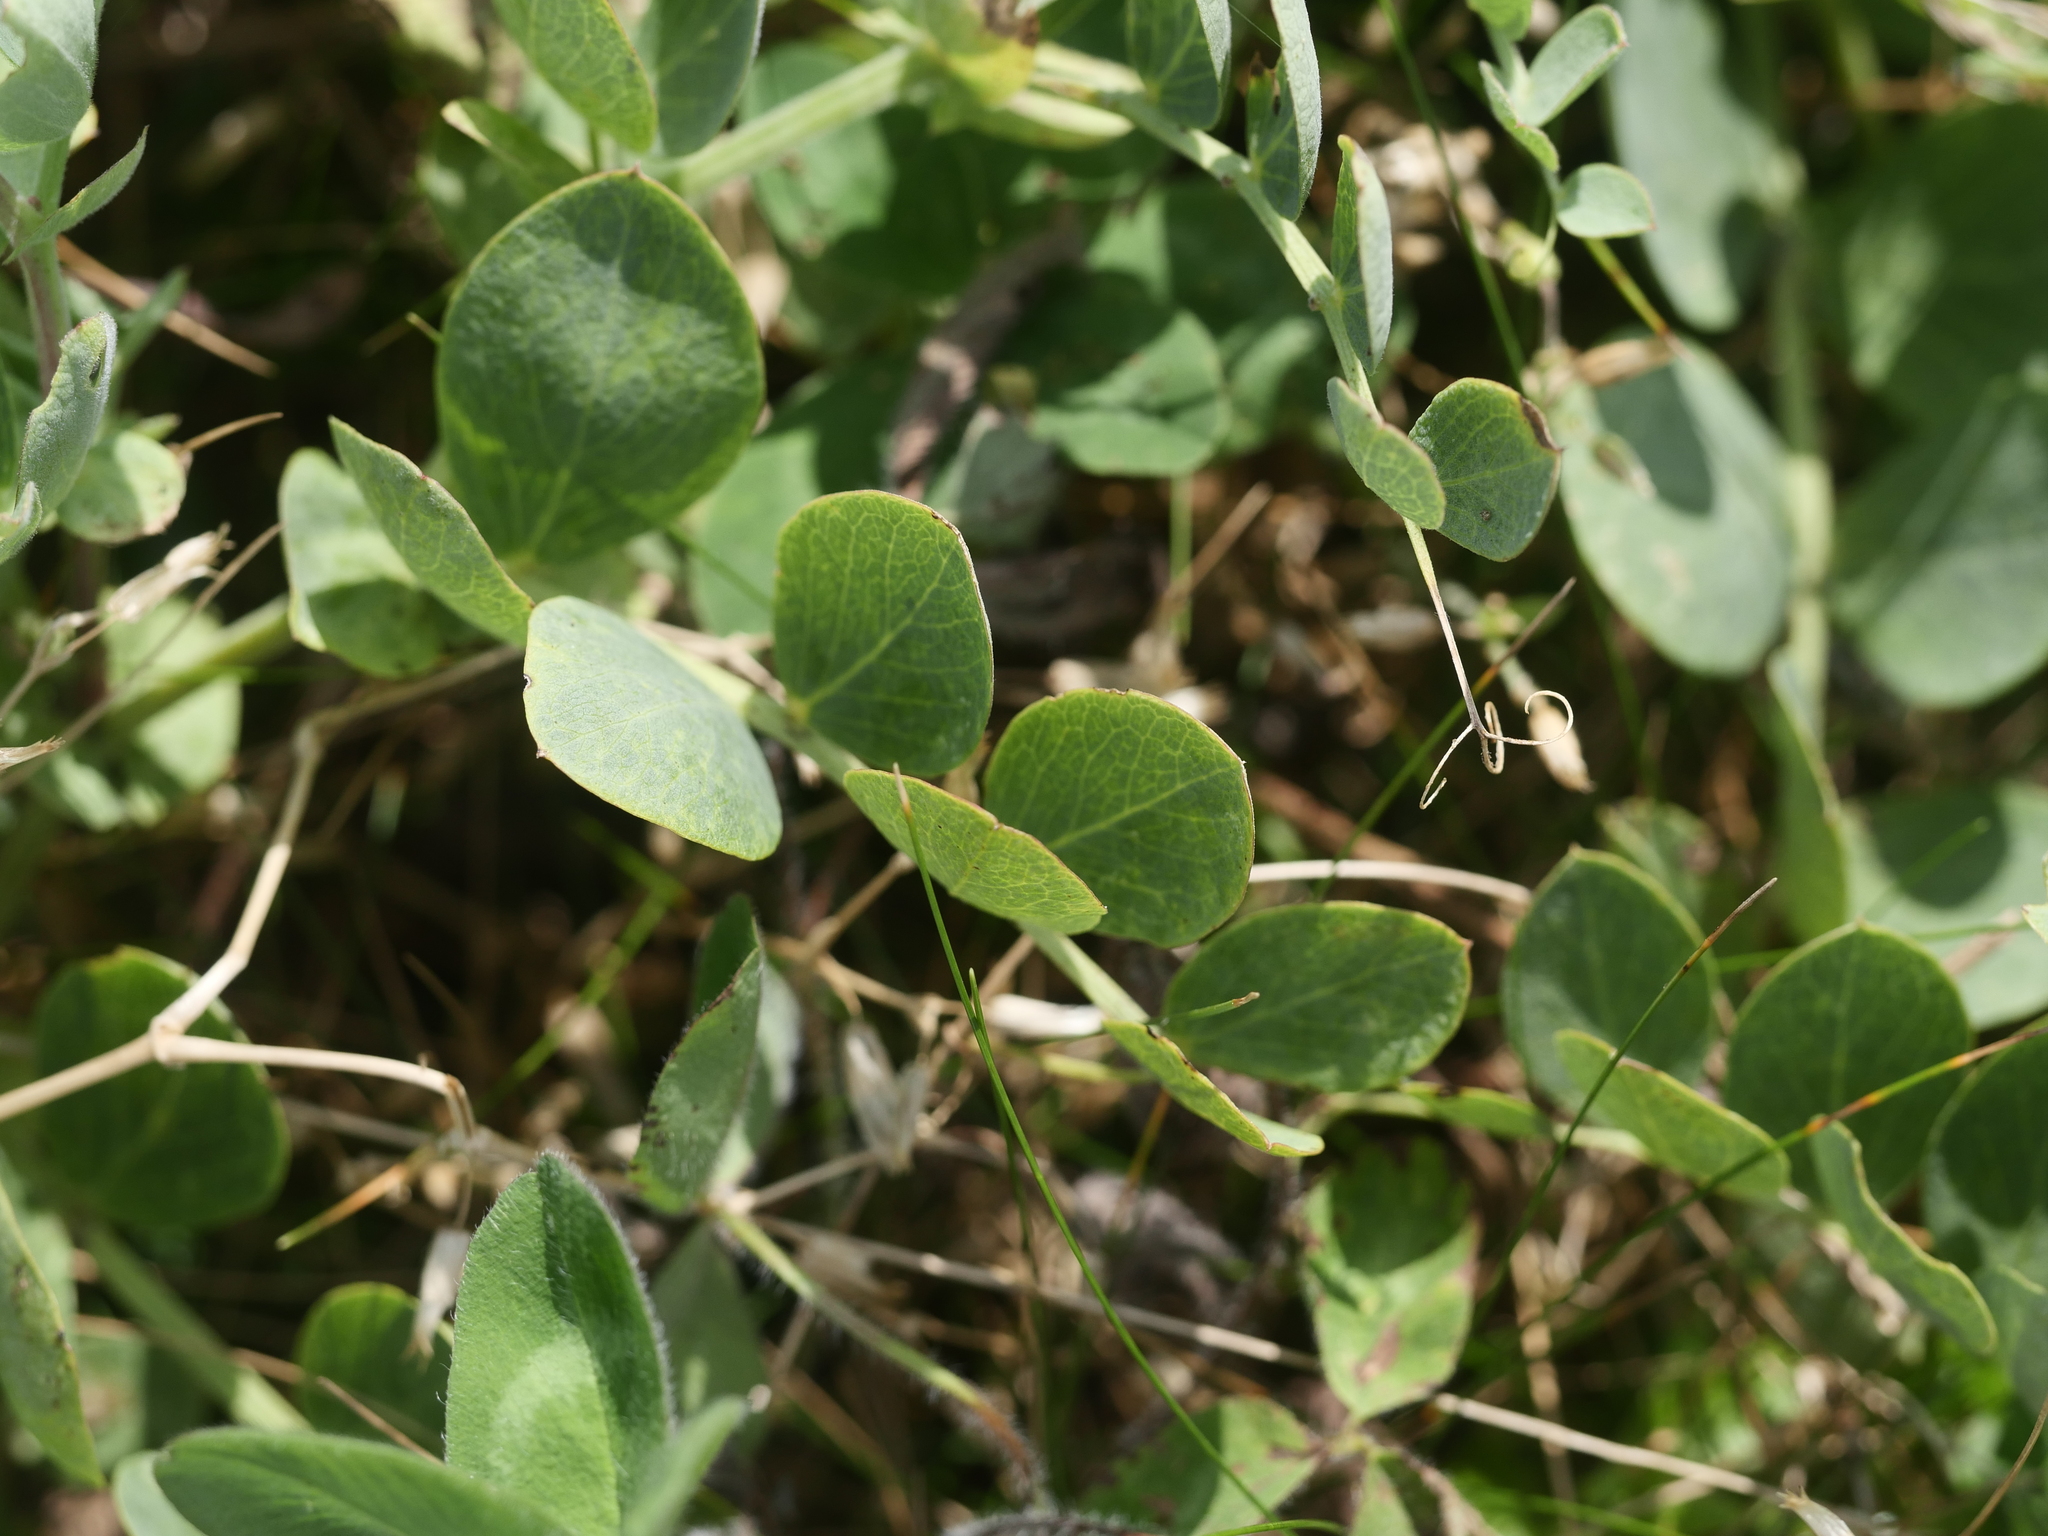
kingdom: Plantae
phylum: Tracheophyta
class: Magnoliopsida
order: Fabales
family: Fabaceae
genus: Lathyrus
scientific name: Lathyrus japonicus
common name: Sea pea
